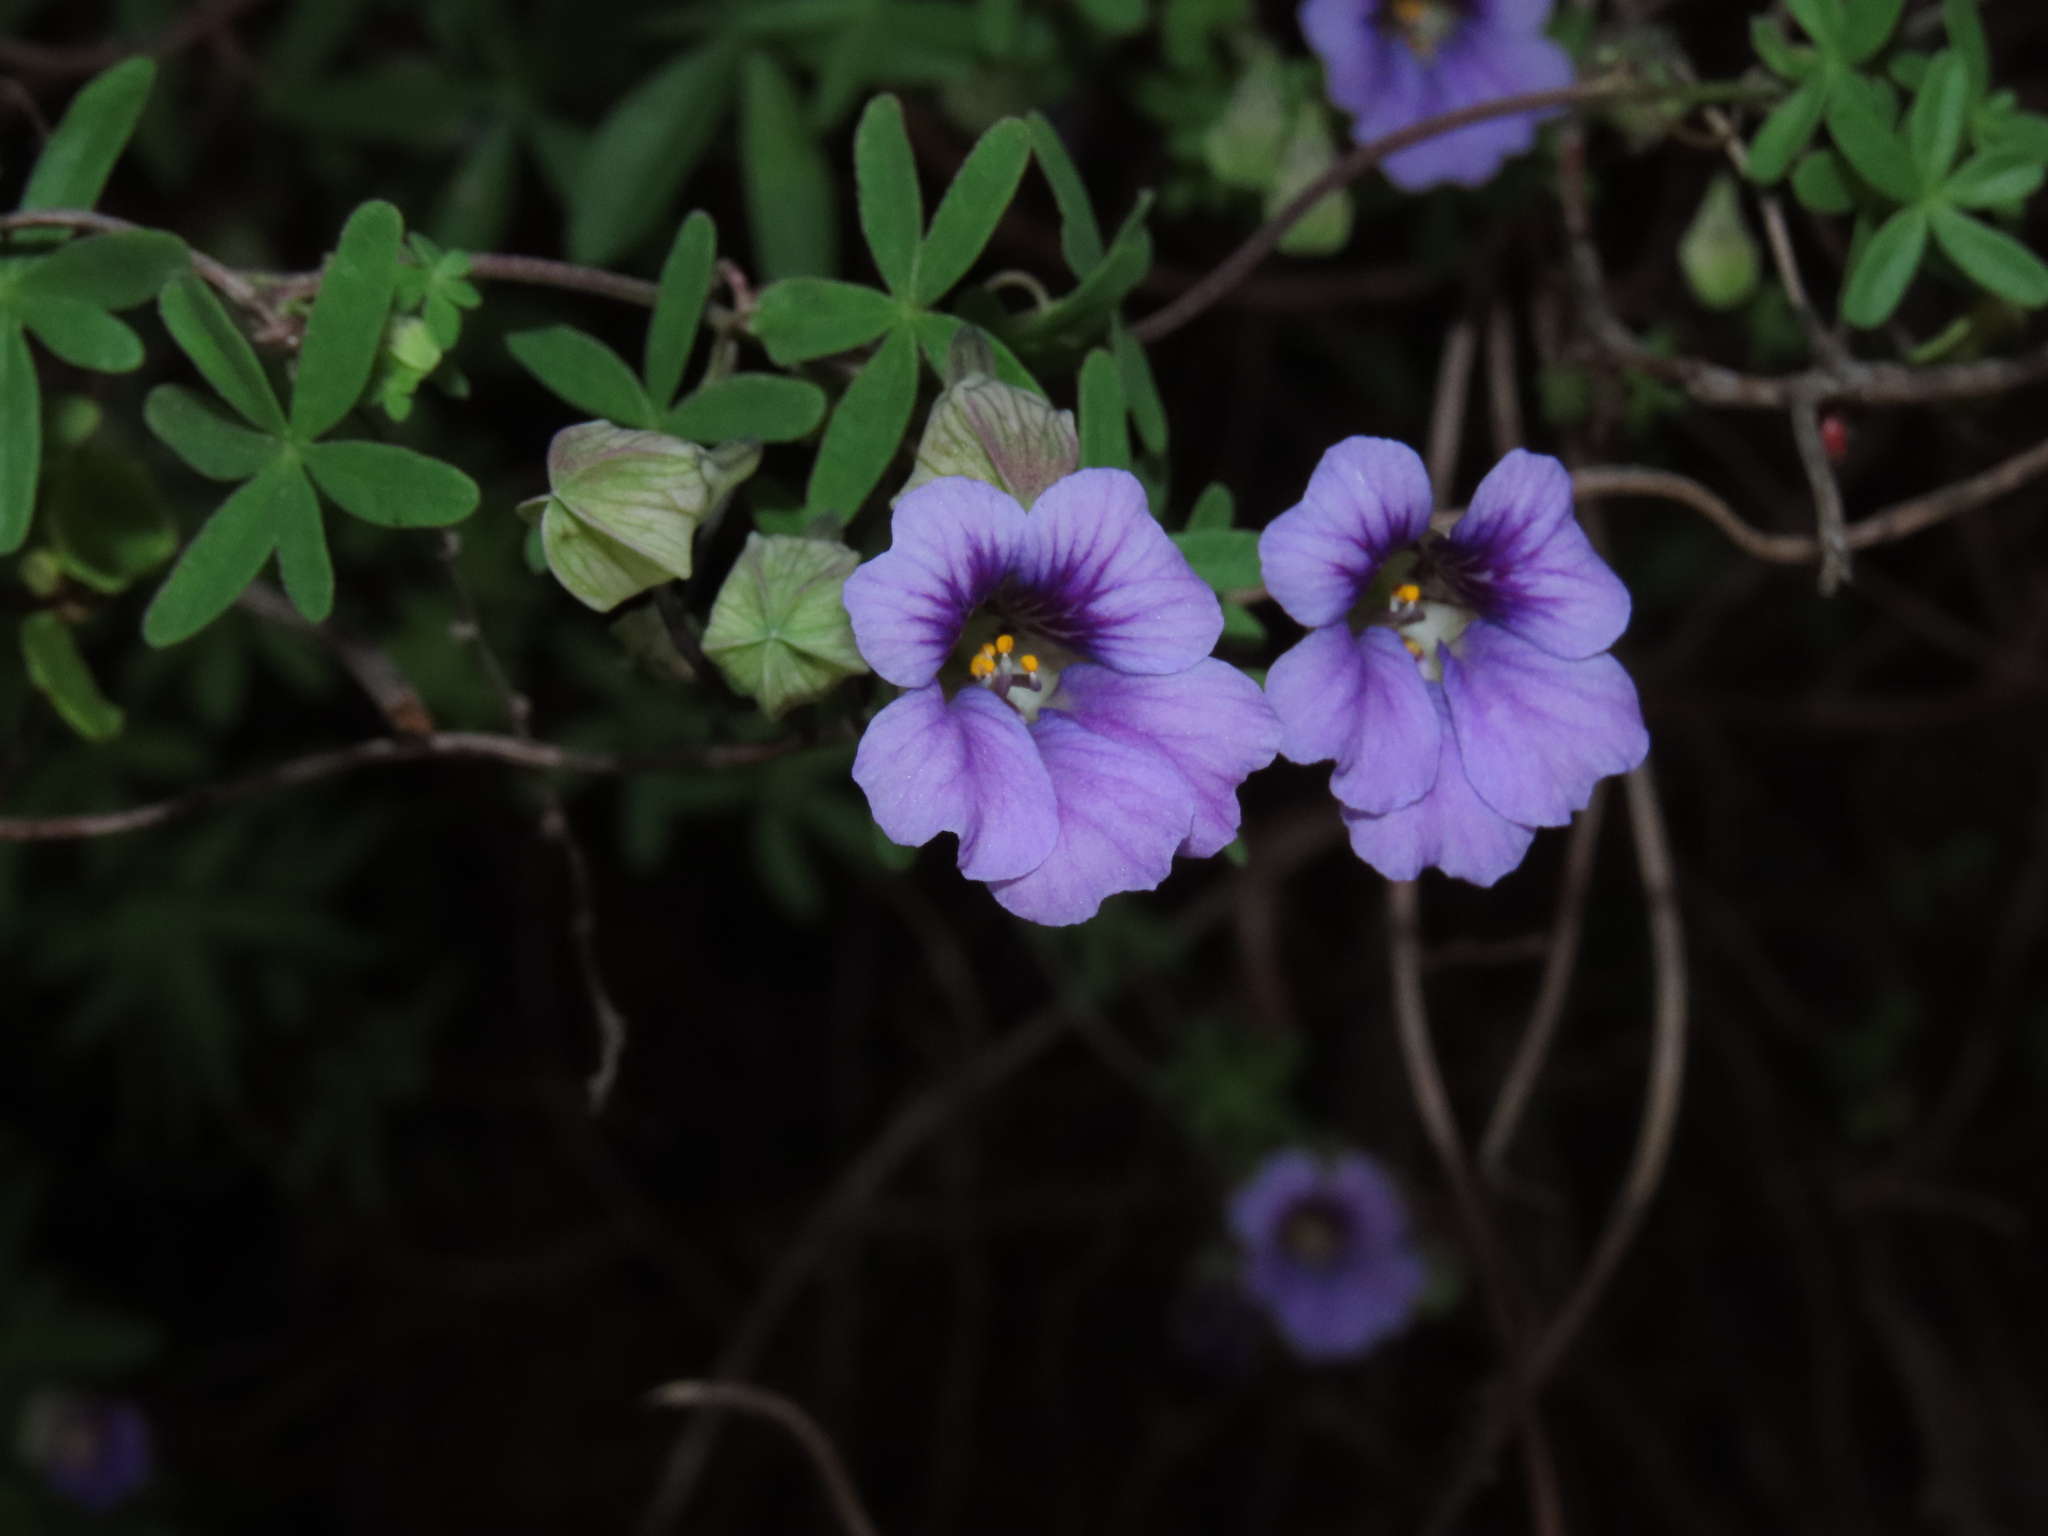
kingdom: Plantae
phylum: Tracheophyta
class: Magnoliopsida
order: Brassicales
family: Tropaeolaceae
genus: Tropaeolum
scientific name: Tropaeolum austropurpureum
